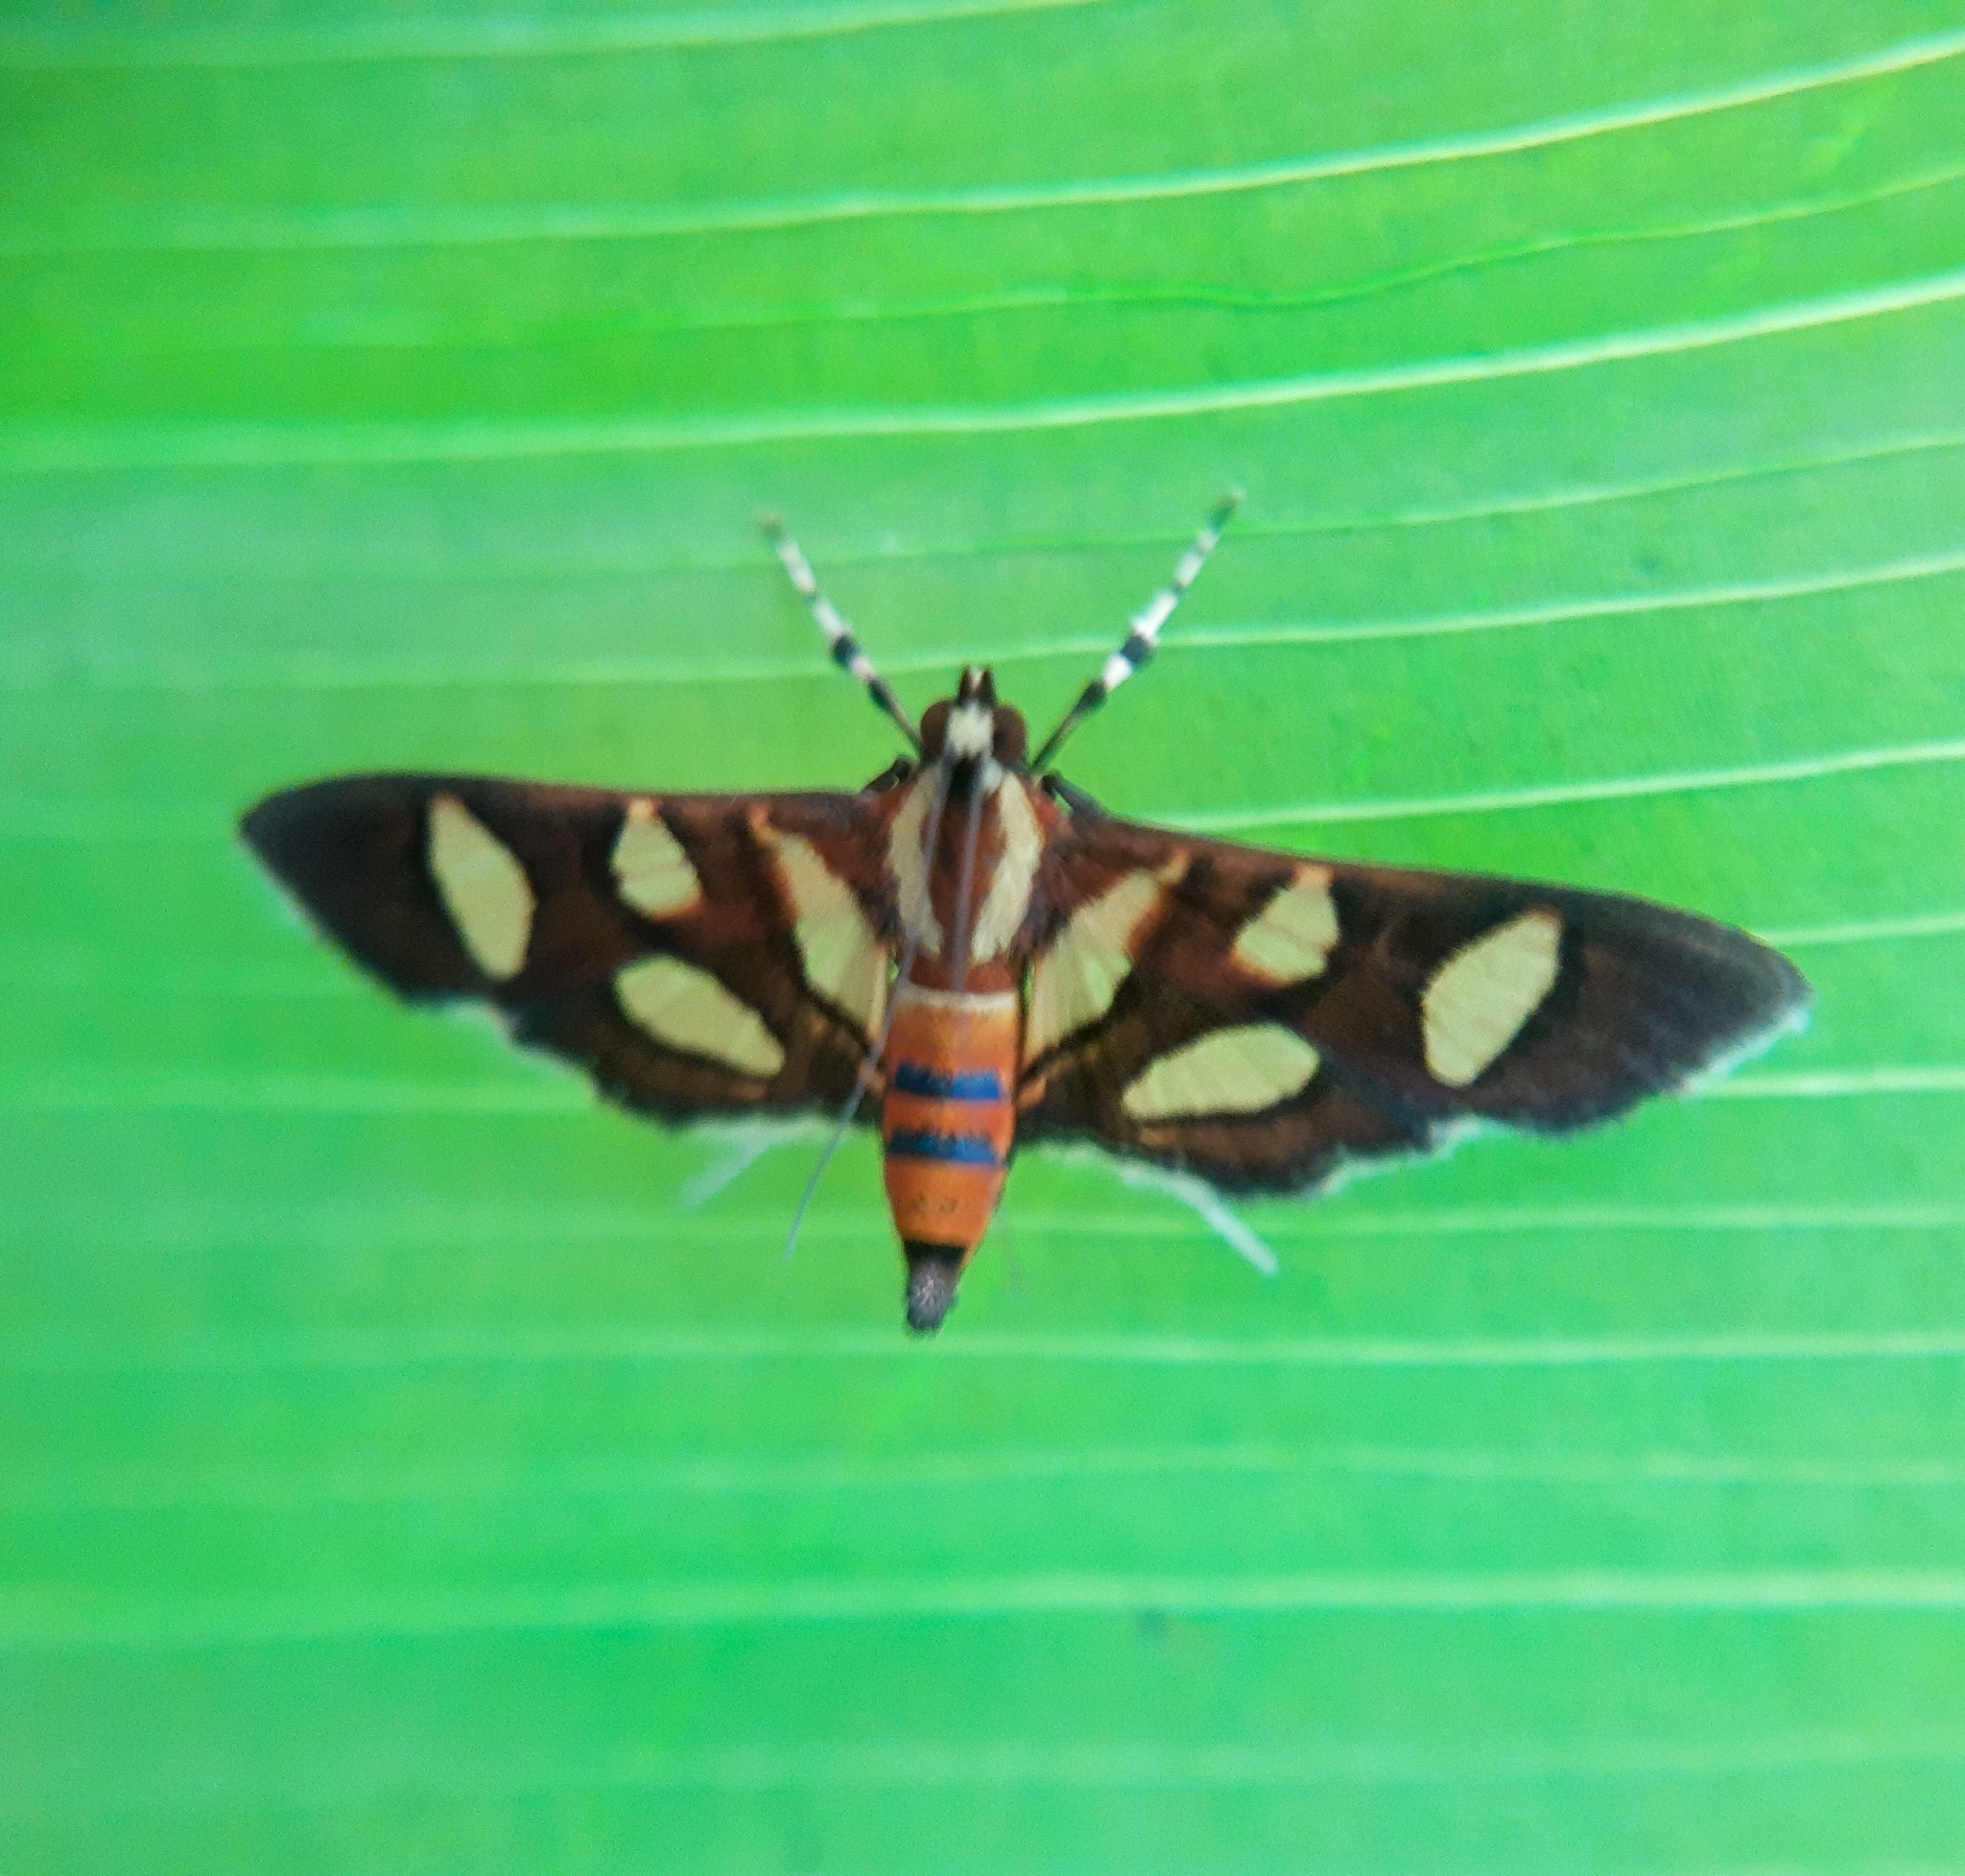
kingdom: Animalia
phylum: Arthropoda
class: Insecta
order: Lepidoptera
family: Crambidae
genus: Syngamia
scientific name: Syngamia florella
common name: Orange-spotted flower moth
